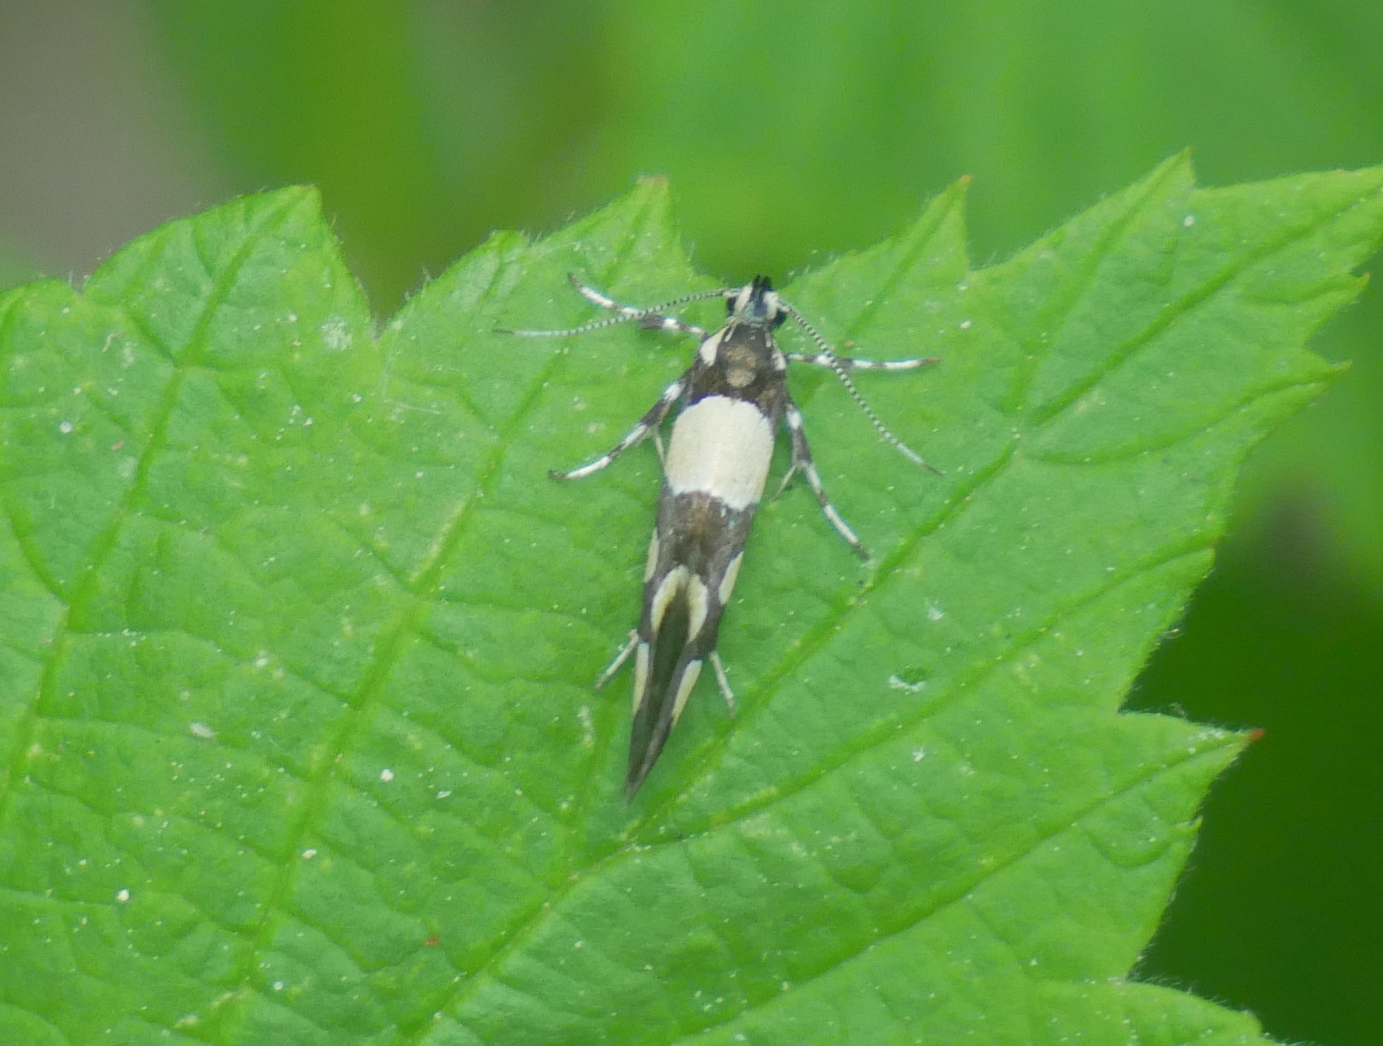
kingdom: Animalia
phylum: Arthropoda
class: Insecta
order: Lepidoptera
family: Oecophoridae
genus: Schiffermuelleria
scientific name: Schiffermuelleria amasiella
